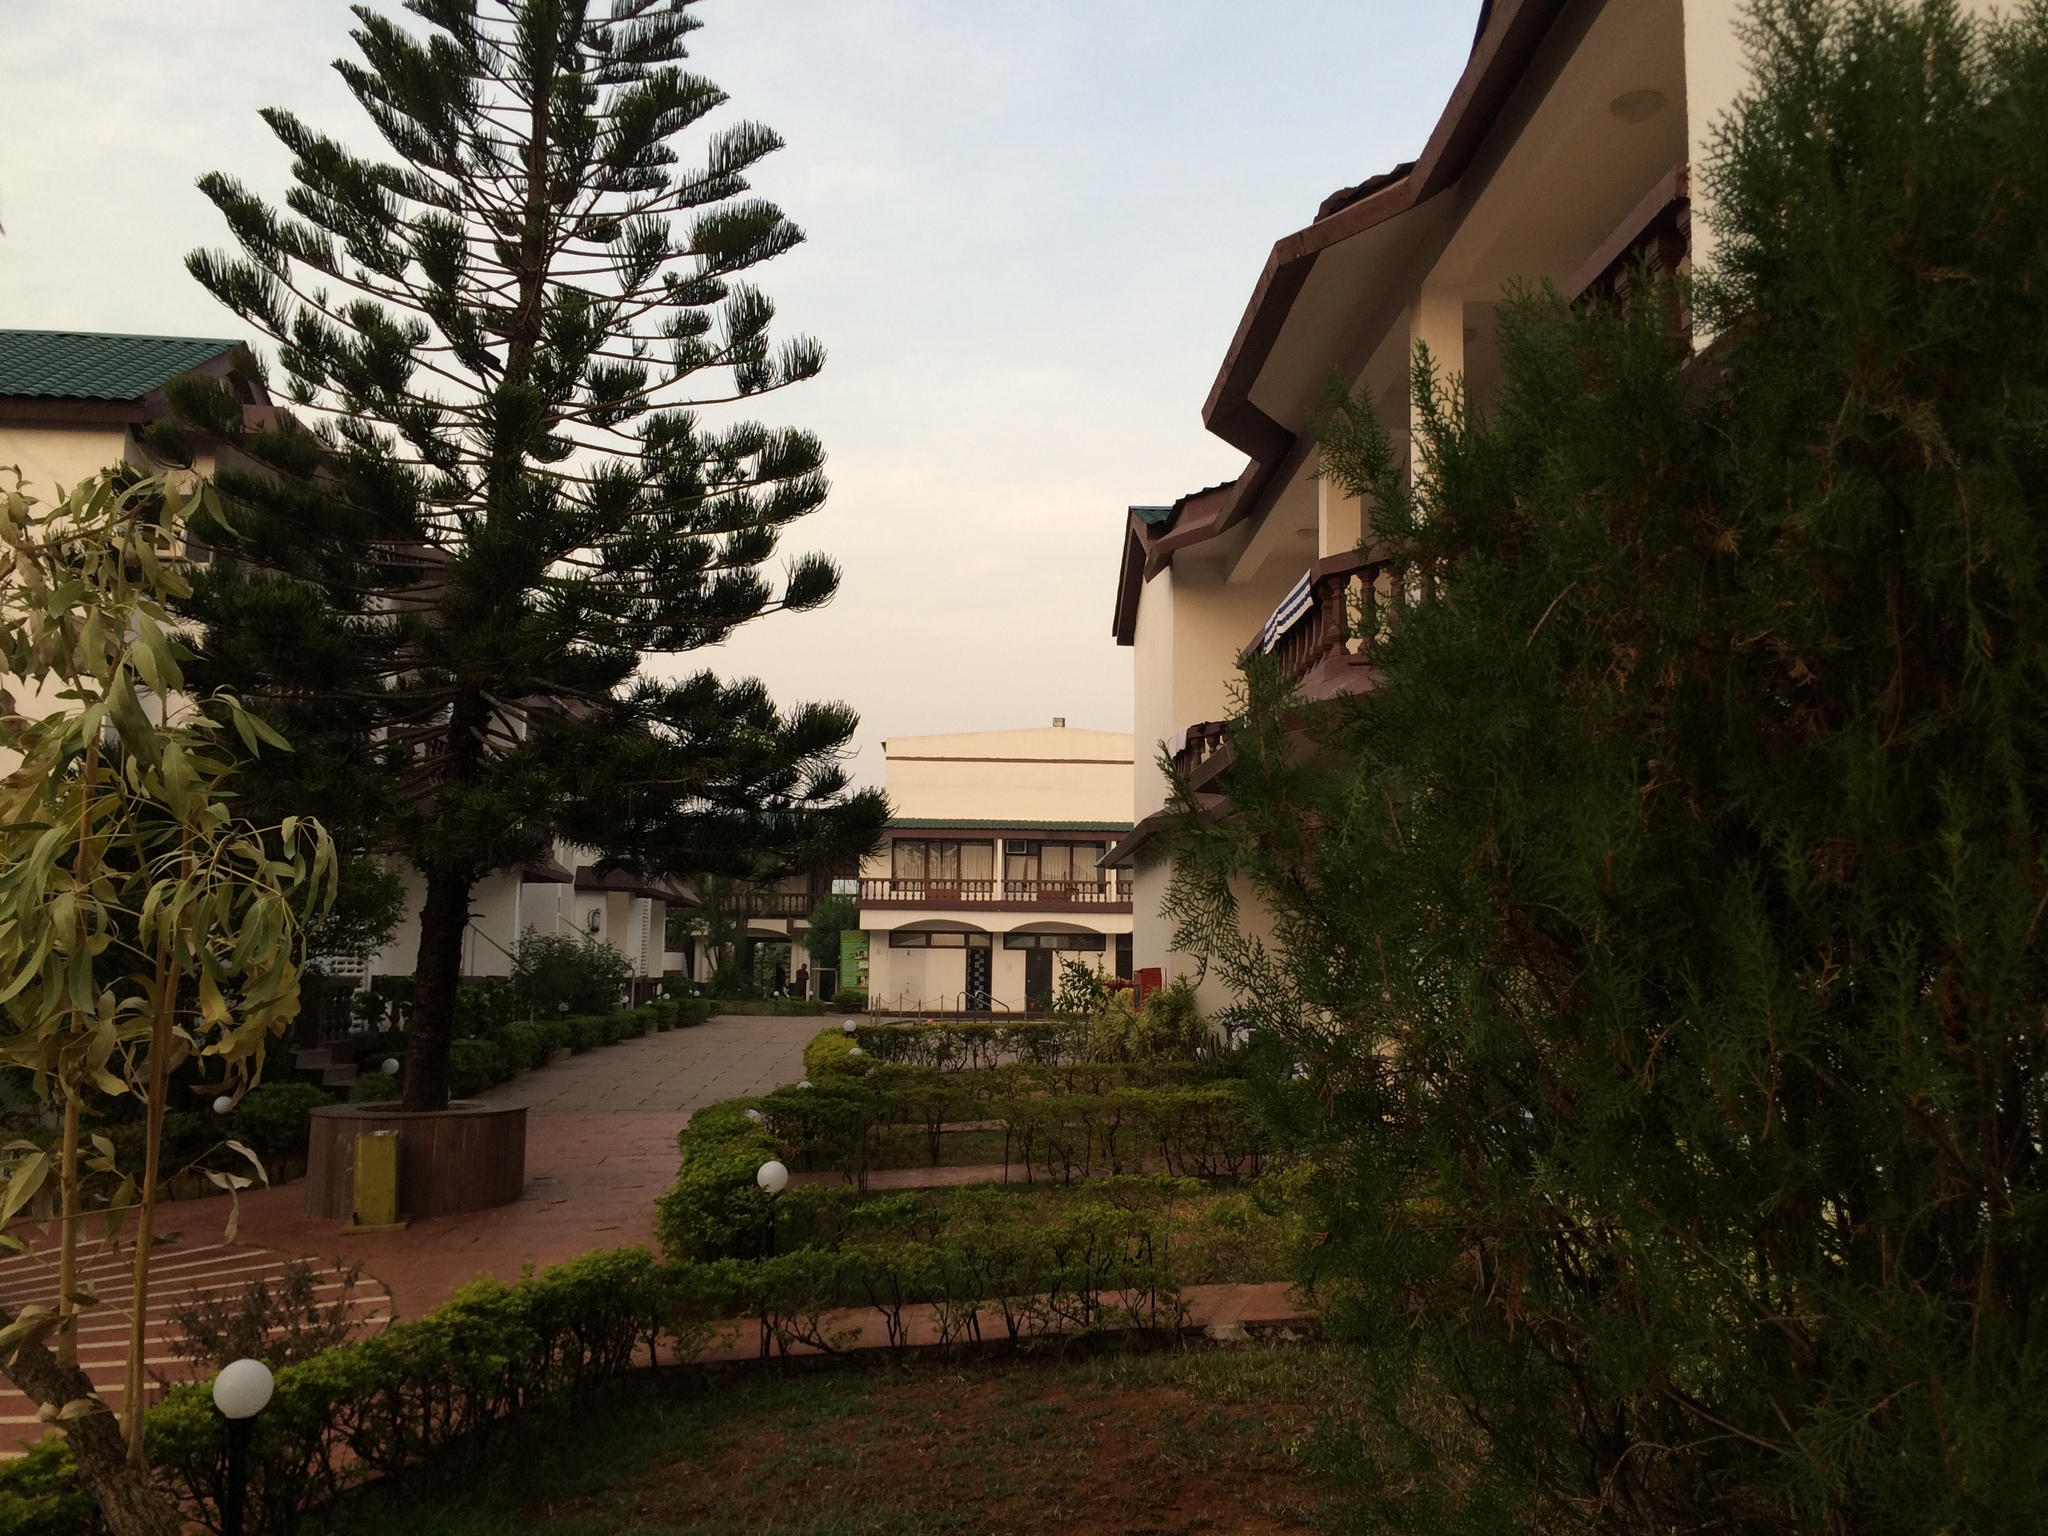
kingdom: Plantae
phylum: Tracheophyta
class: Pinopsida
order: Pinales
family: Araucariaceae
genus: Araucaria
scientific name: Araucaria columnaris
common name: Coral reef araucaria
